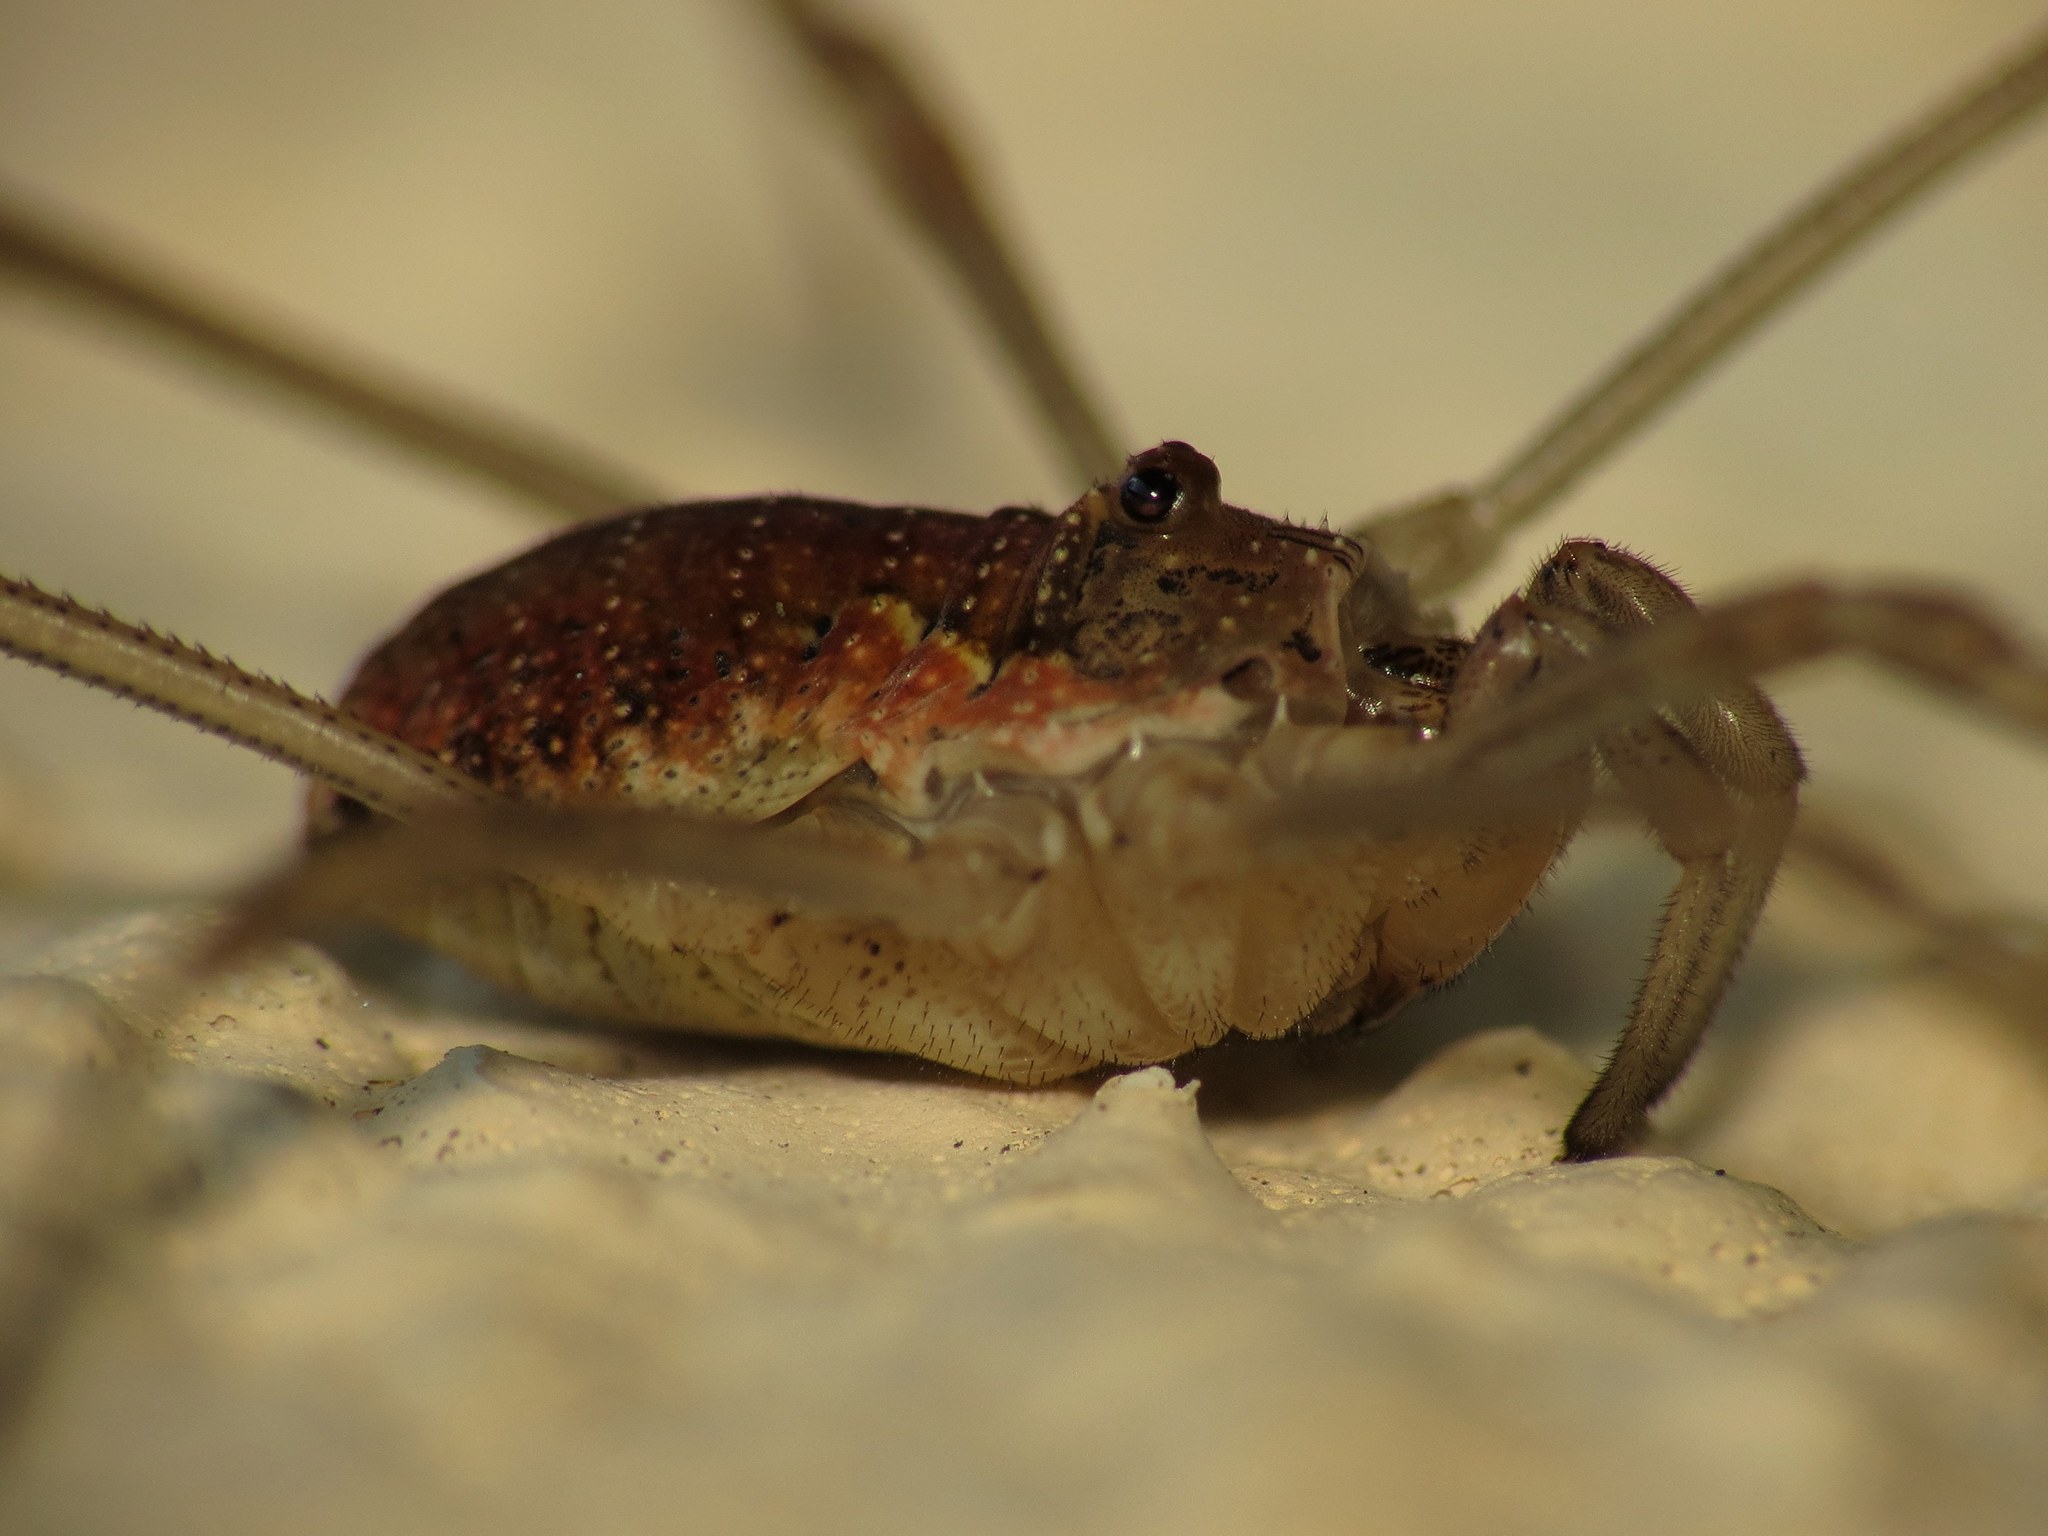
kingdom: Animalia
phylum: Arthropoda
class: Arachnida
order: Opiliones
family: Phalangiidae
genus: Mitopus
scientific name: Mitopus morio
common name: Saddleback harvestman
